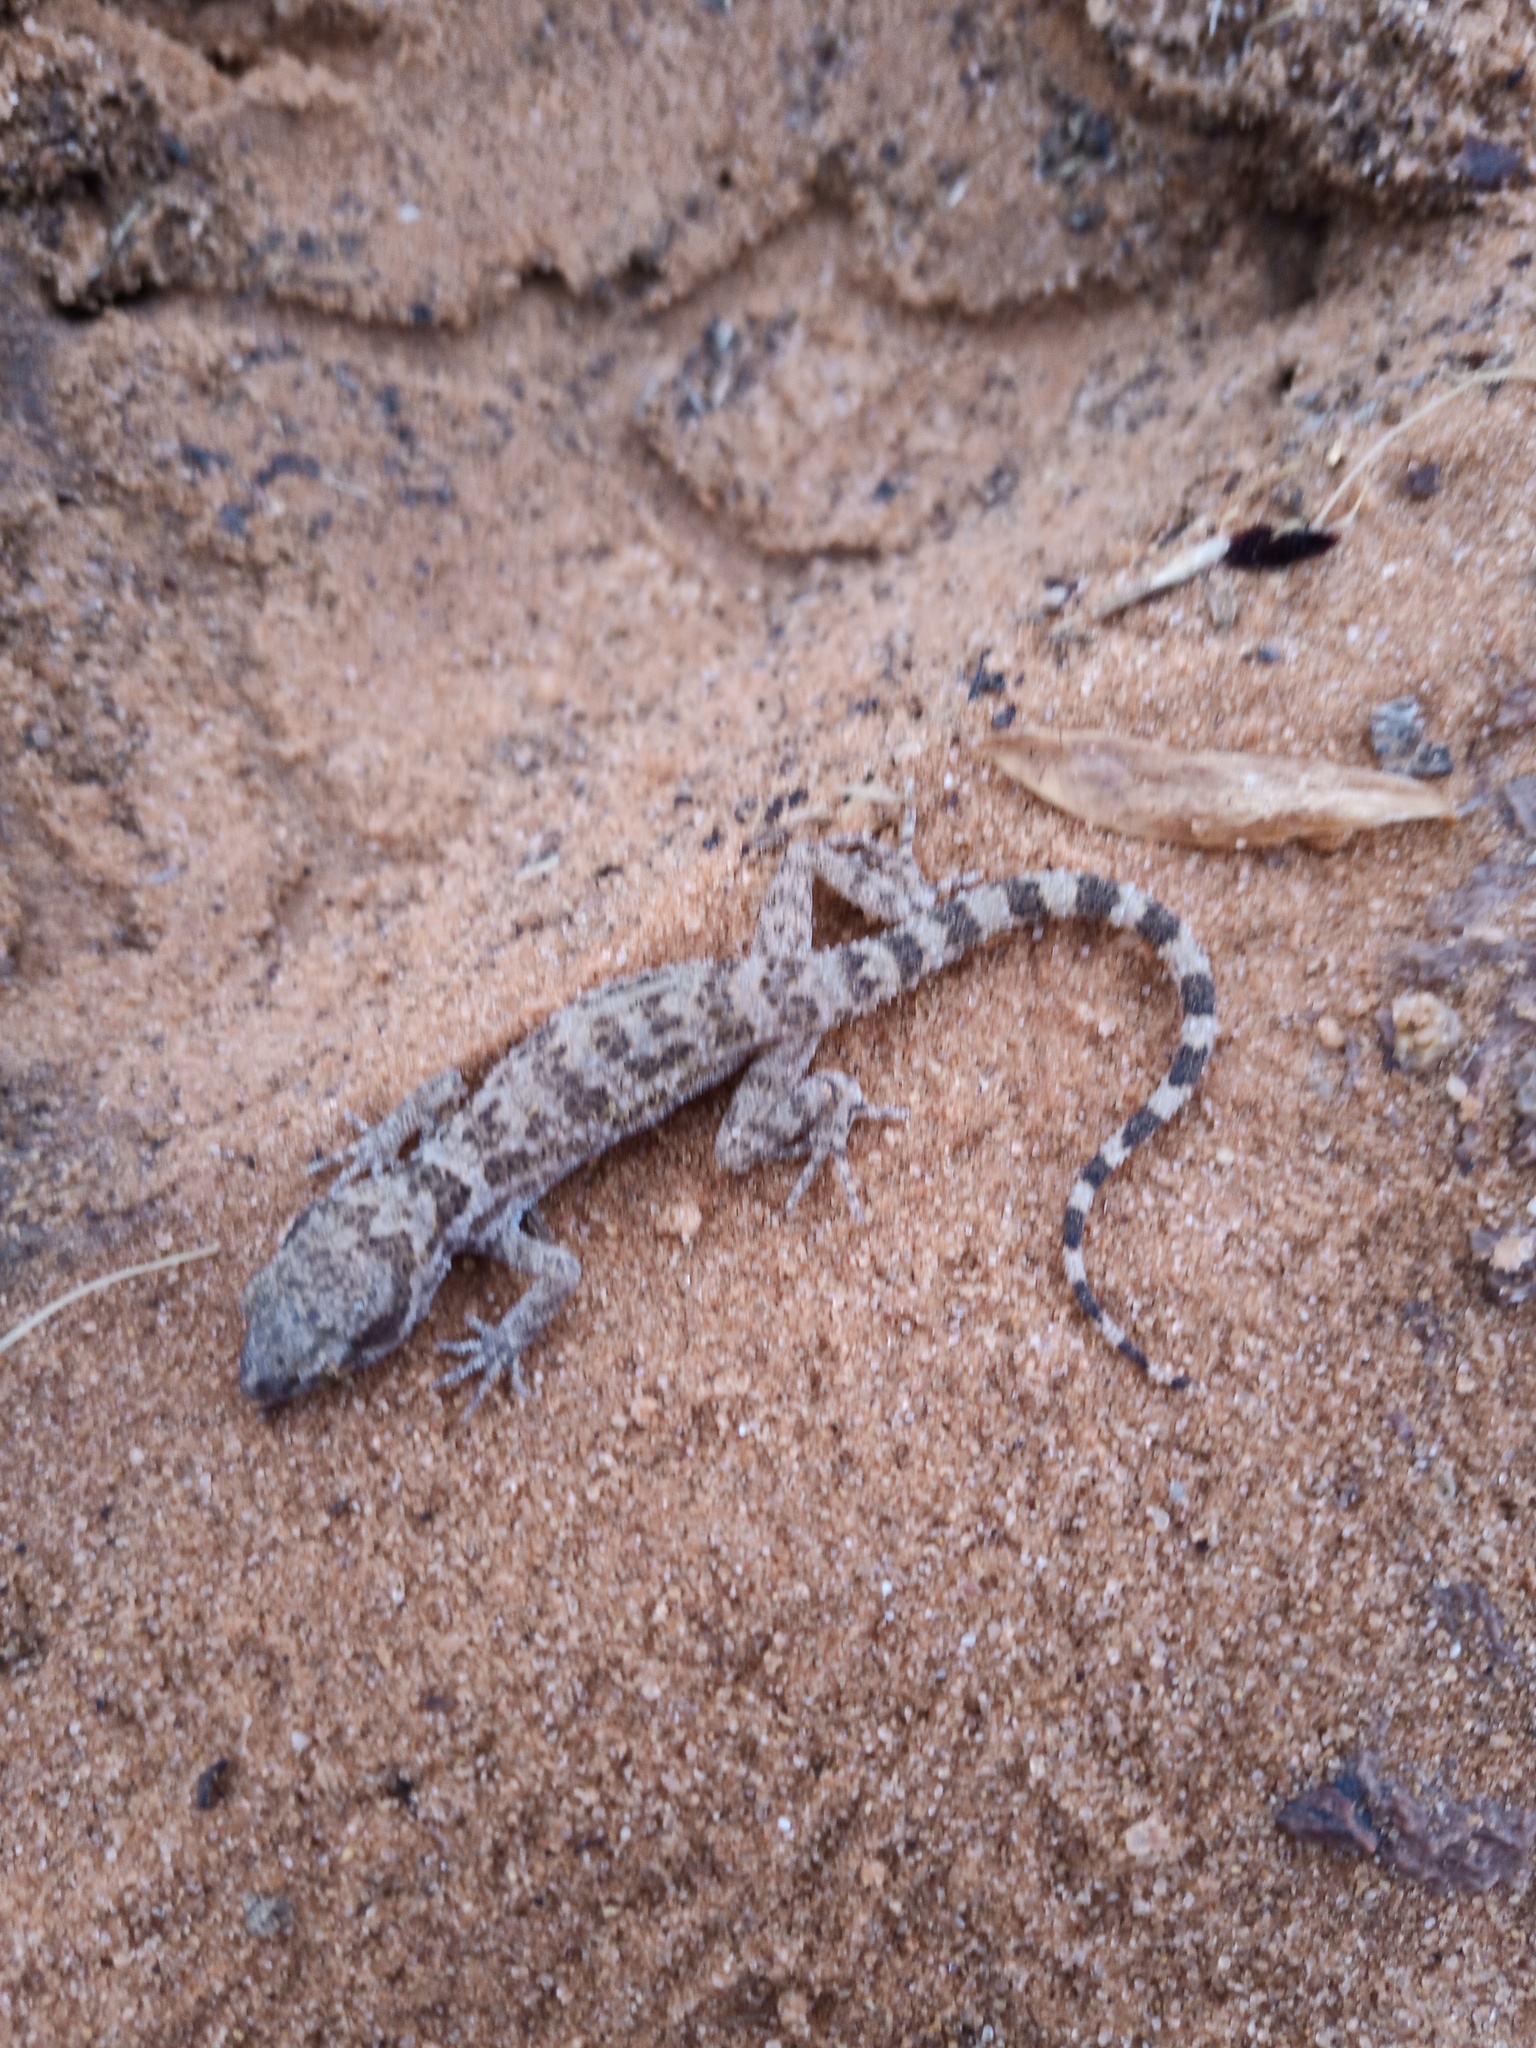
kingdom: Animalia
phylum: Chordata
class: Squamata
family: Gekkonidae
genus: Bunopus
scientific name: Bunopus tuberculatus
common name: Southern tuberculated gecko
